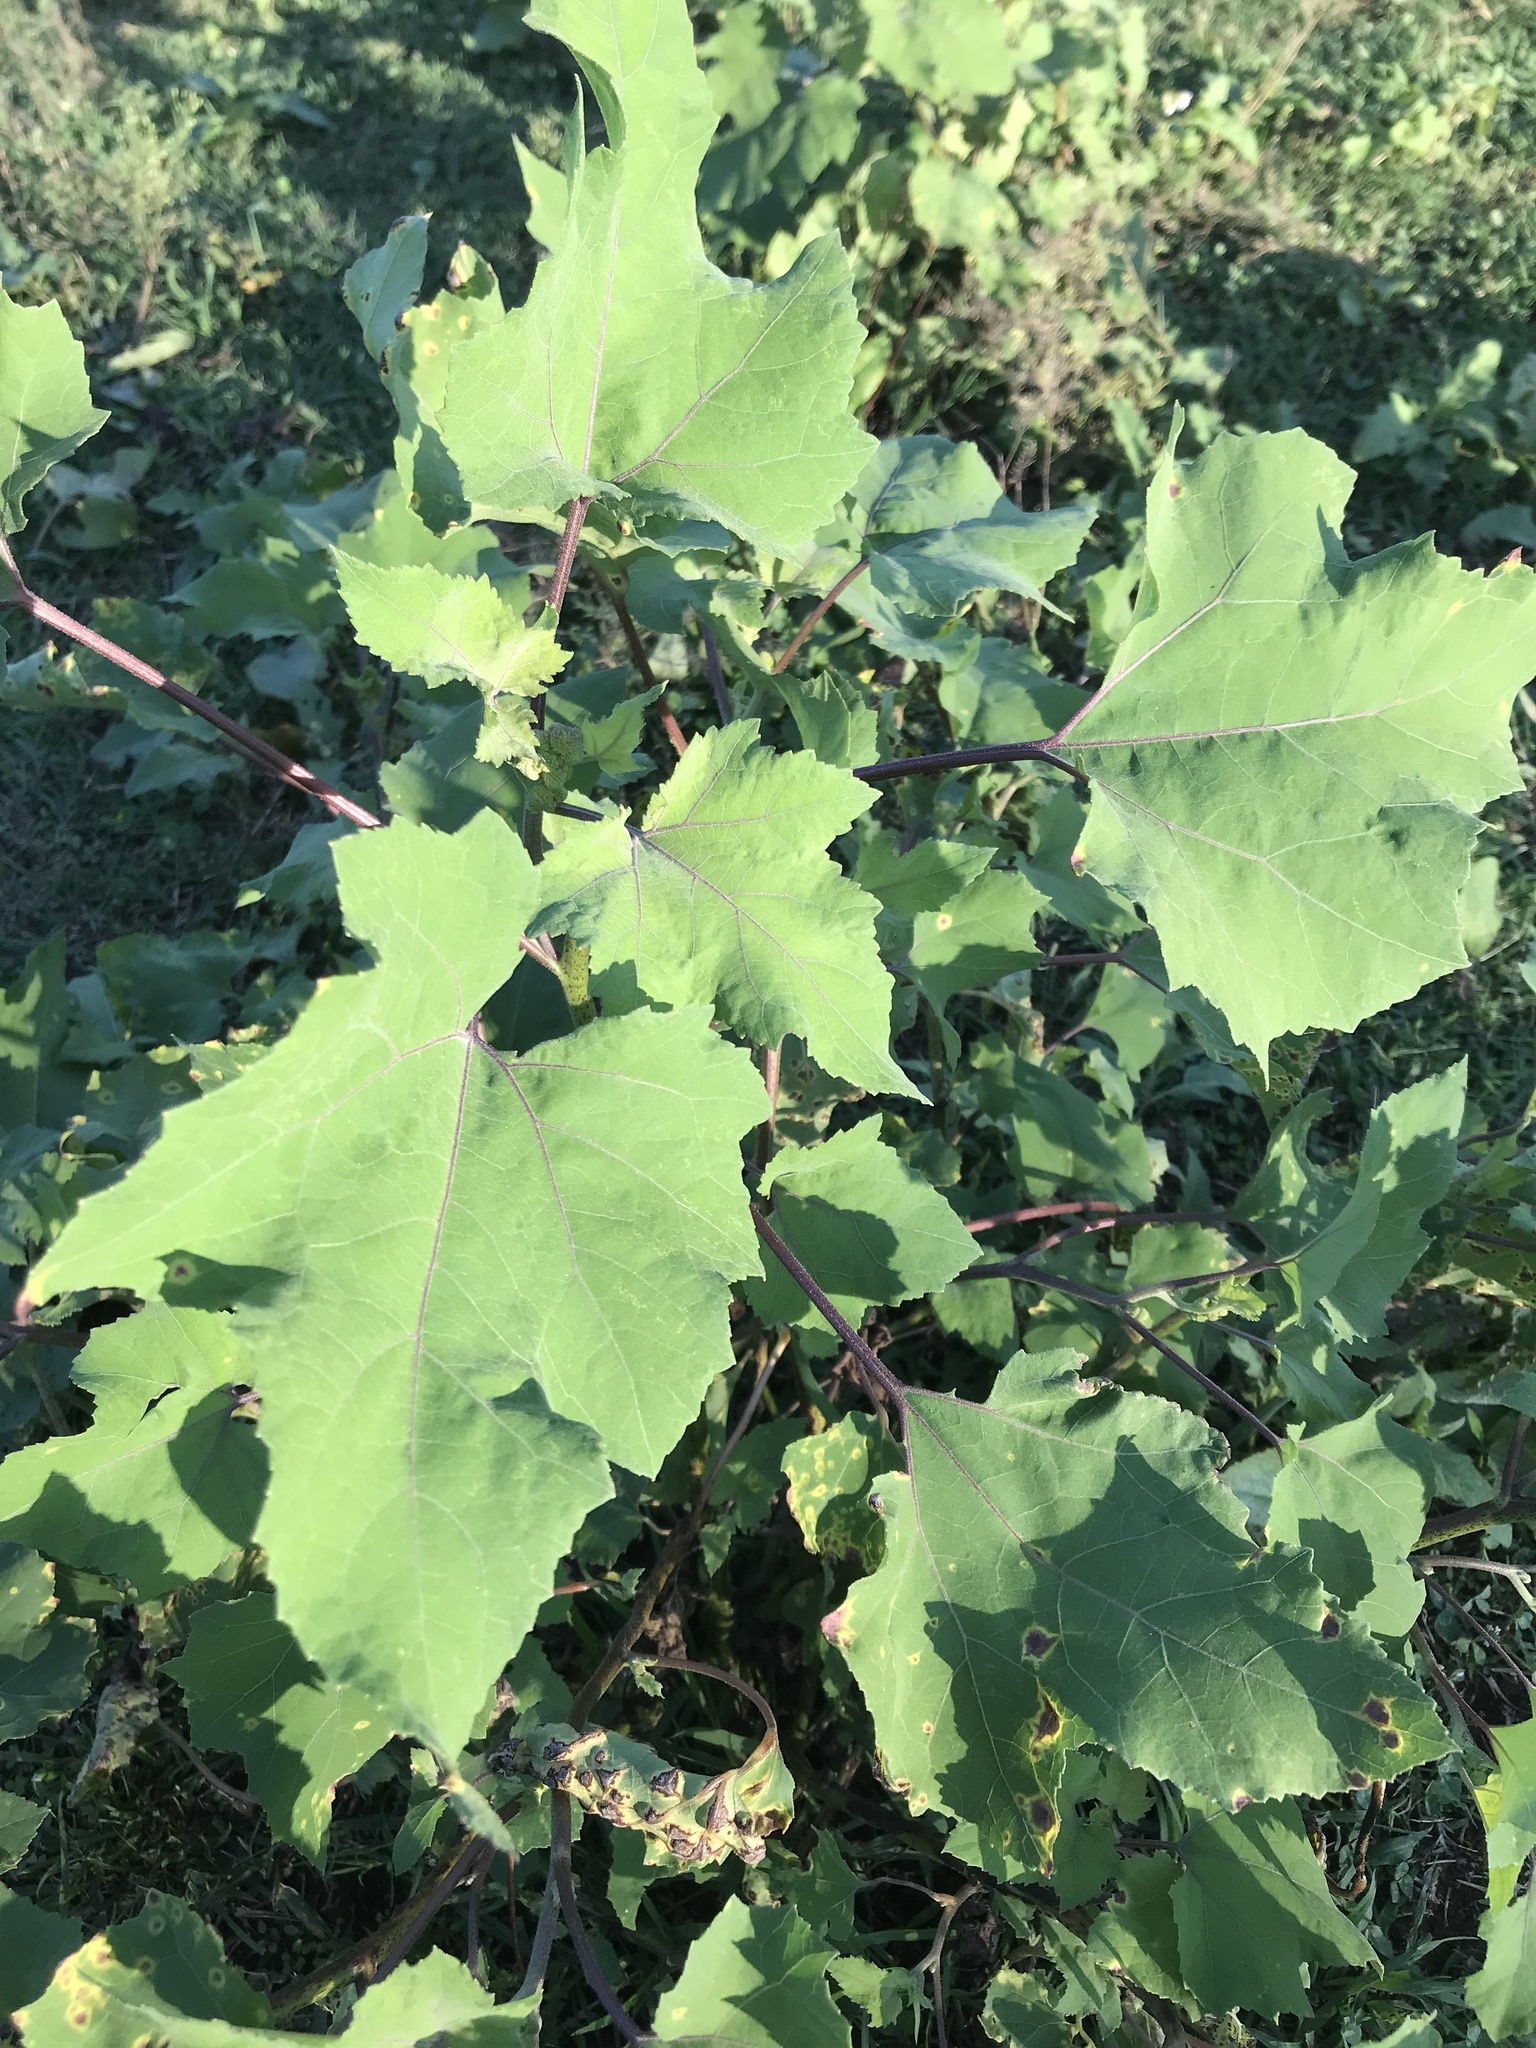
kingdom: Plantae
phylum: Tracheophyta
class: Magnoliopsida
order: Asterales
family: Asteraceae
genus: Xanthium
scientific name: Xanthium strumarium
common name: Rough cocklebur
